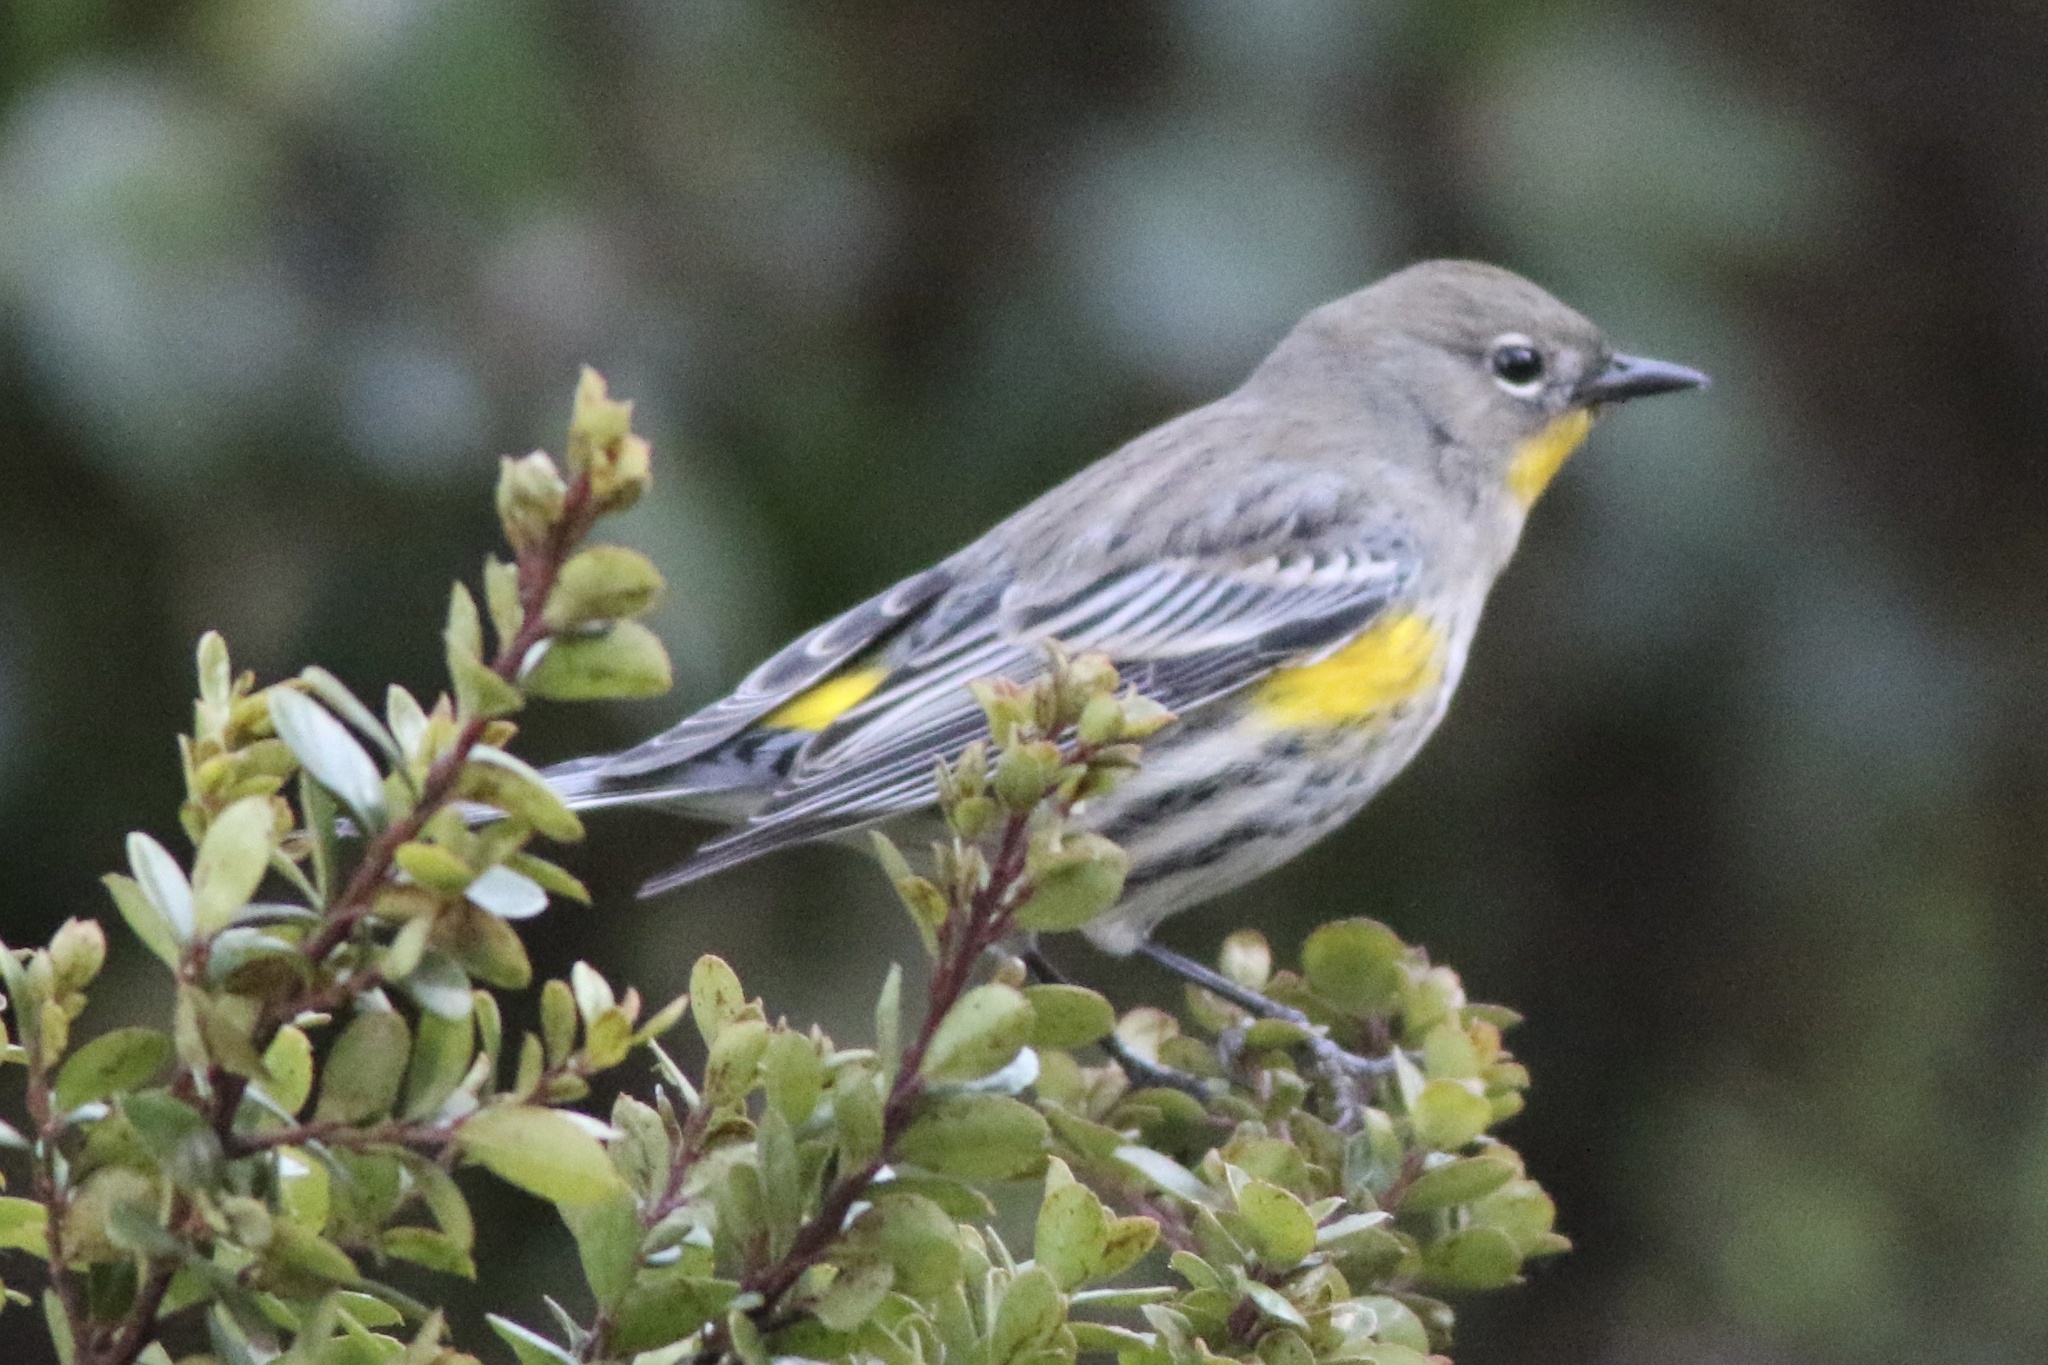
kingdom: Animalia
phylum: Chordata
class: Aves
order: Passeriformes
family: Parulidae
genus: Setophaga
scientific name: Setophaga coronata
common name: Myrtle warbler
